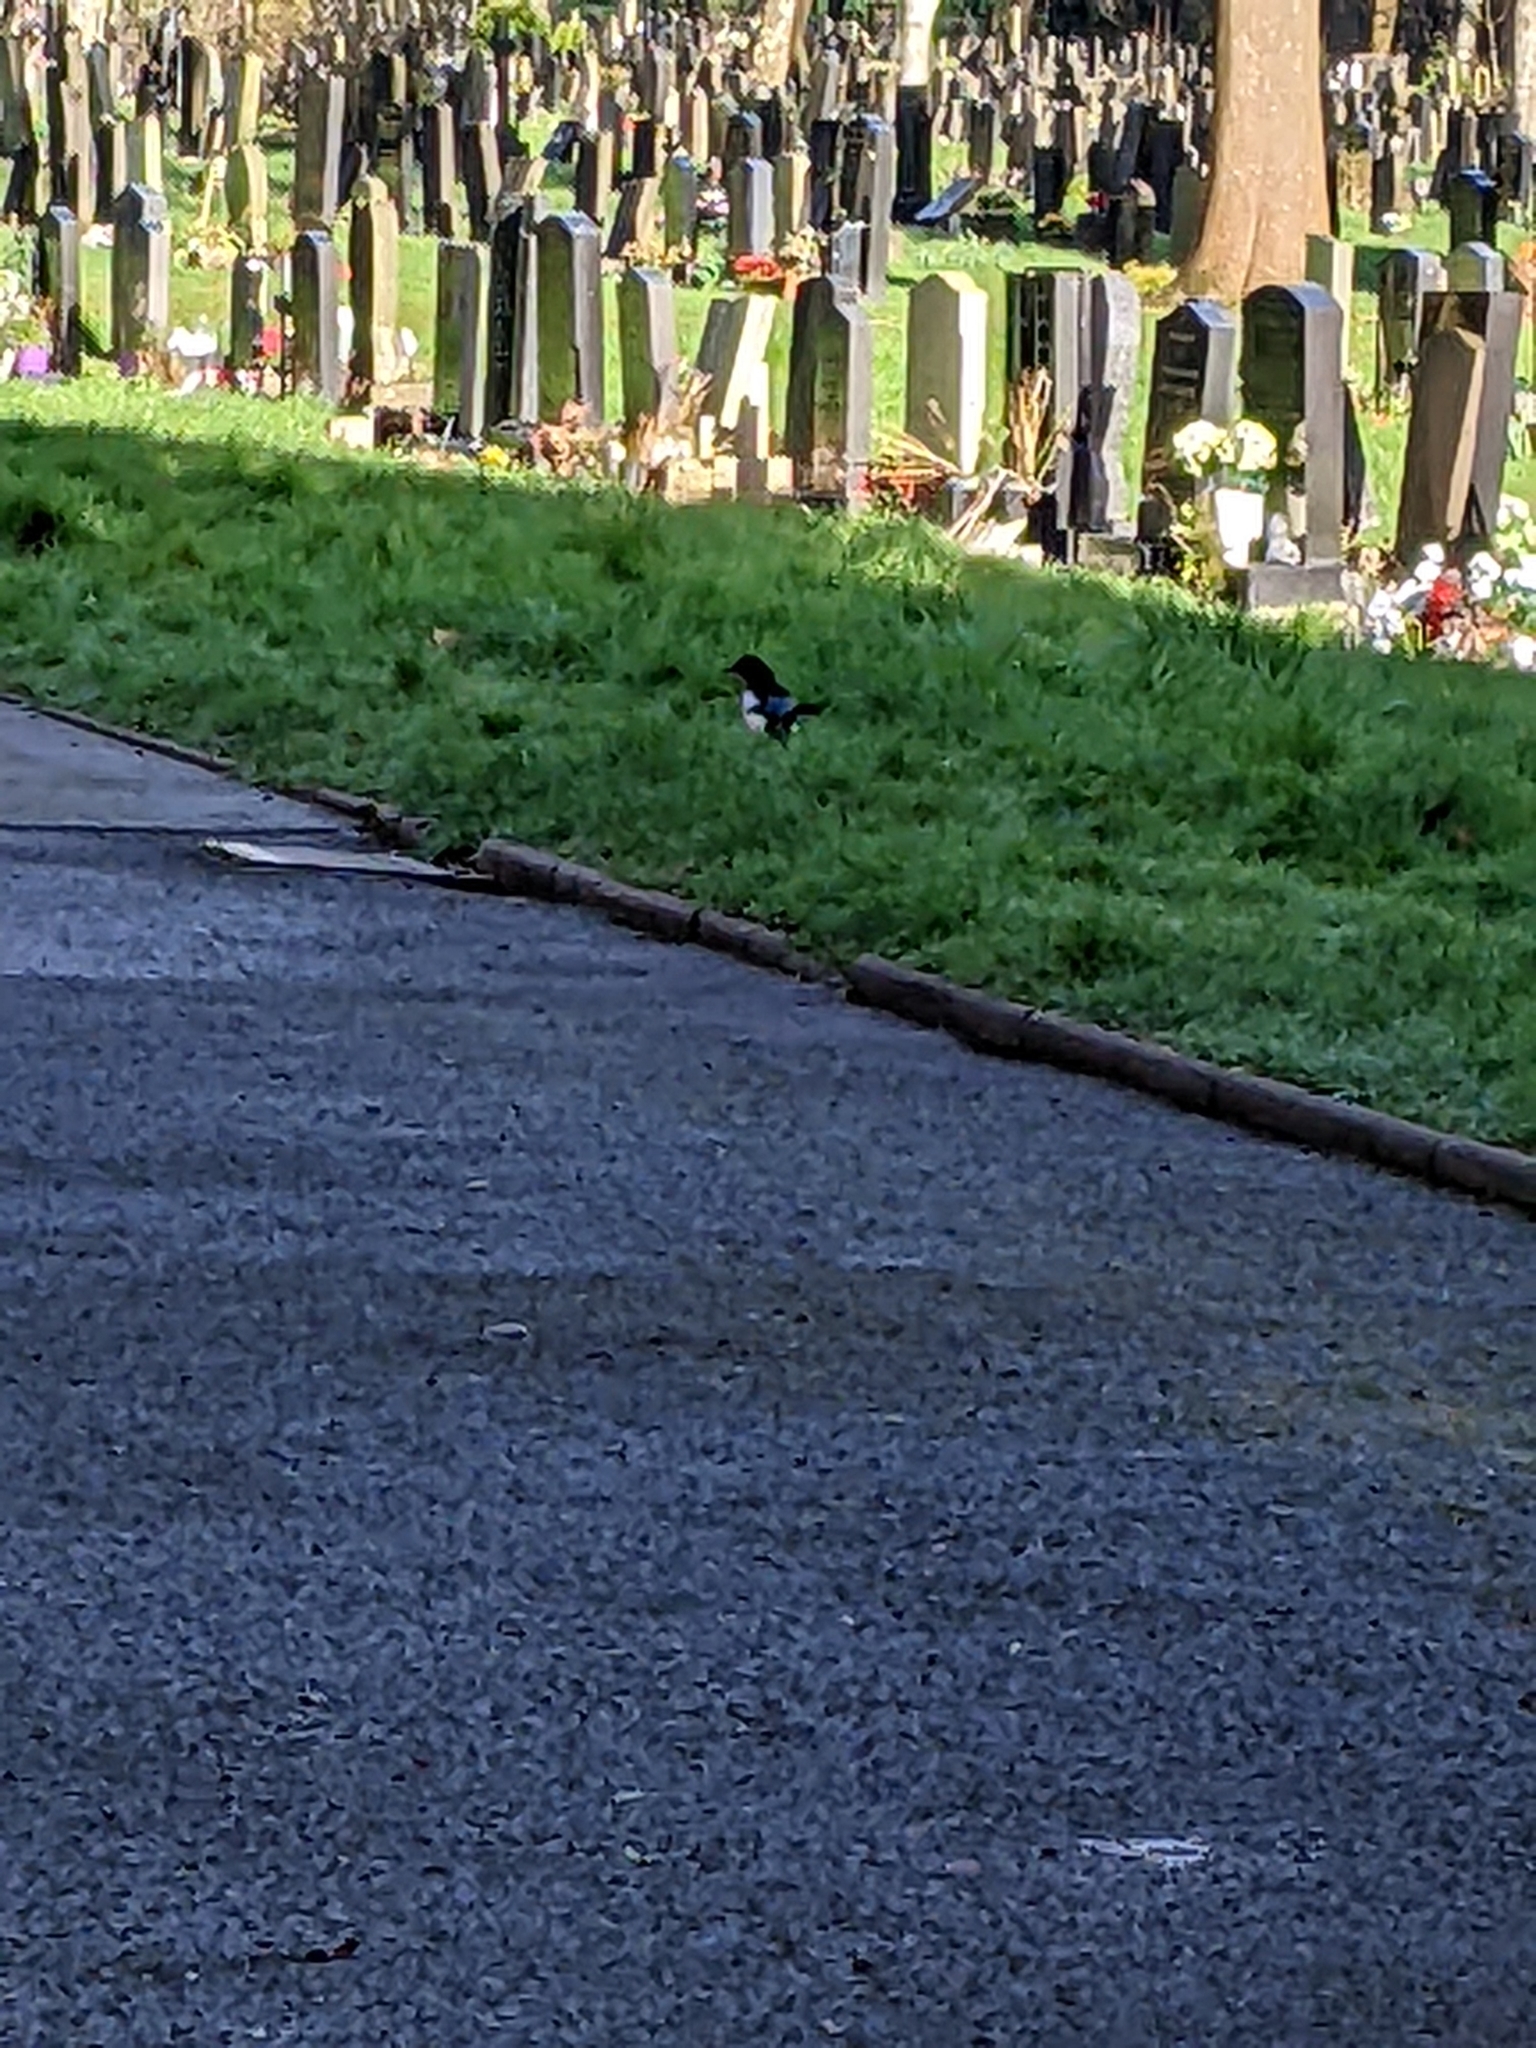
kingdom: Animalia
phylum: Chordata
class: Aves
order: Passeriformes
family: Corvidae
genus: Pica
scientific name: Pica pica
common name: Eurasian magpie
